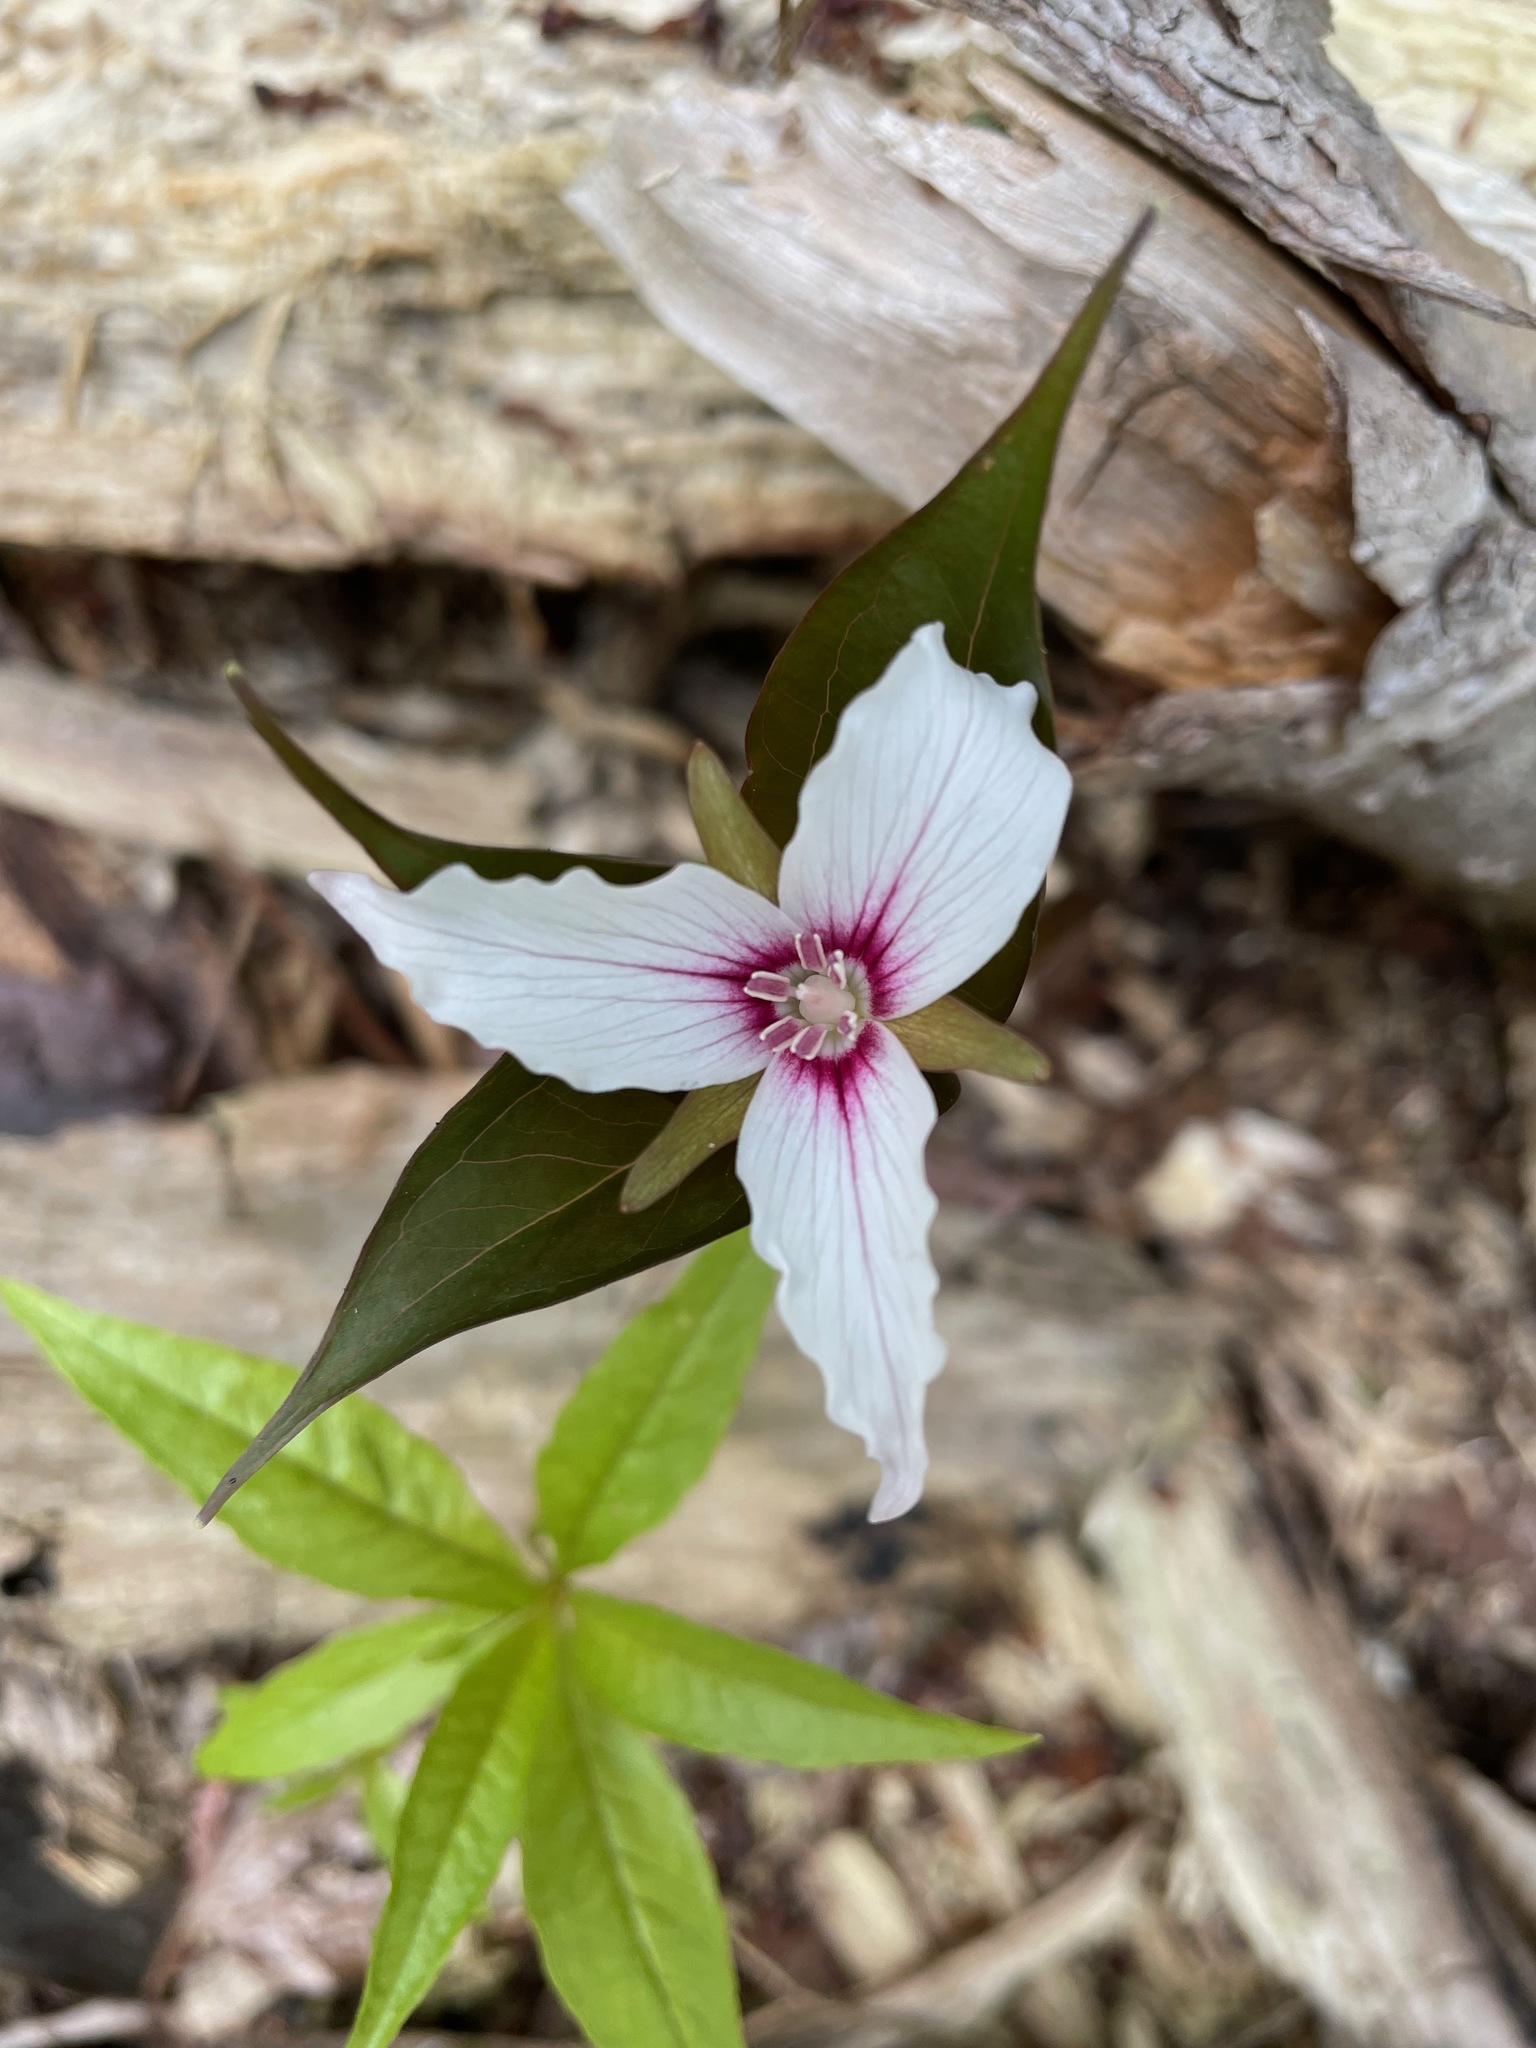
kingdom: Plantae
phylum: Tracheophyta
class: Liliopsida
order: Liliales
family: Melanthiaceae
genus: Trillium
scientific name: Trillium undulatum
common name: Paint trillium
